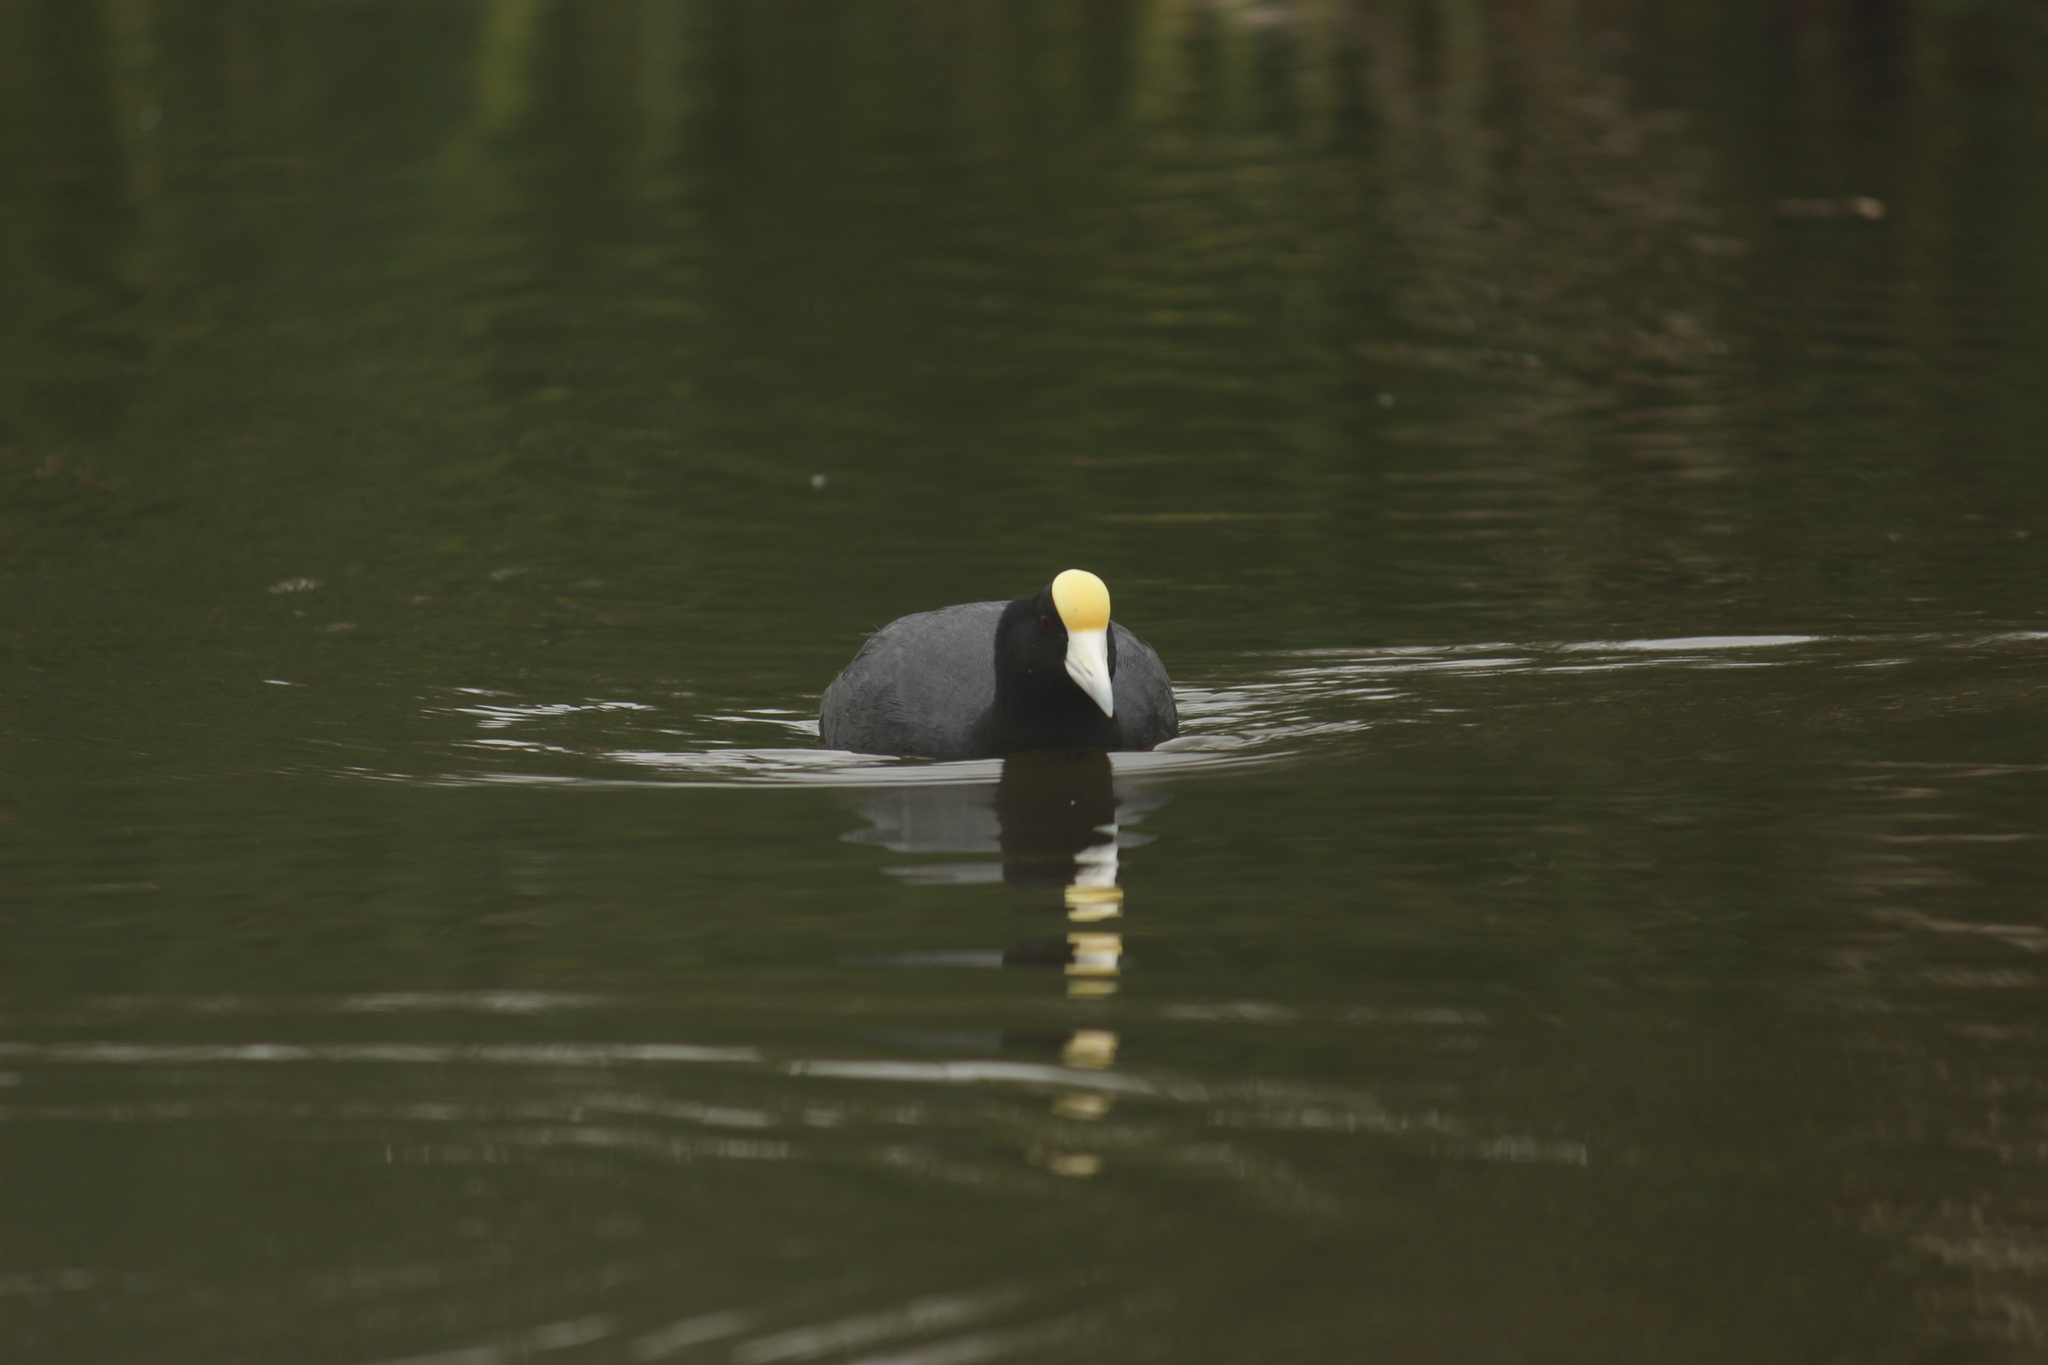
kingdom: Animalia
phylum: Chordata
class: Aves
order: Gruiformes
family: Rallidae
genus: Fulica
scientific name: Fulica ardesiaca
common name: Andean coot
